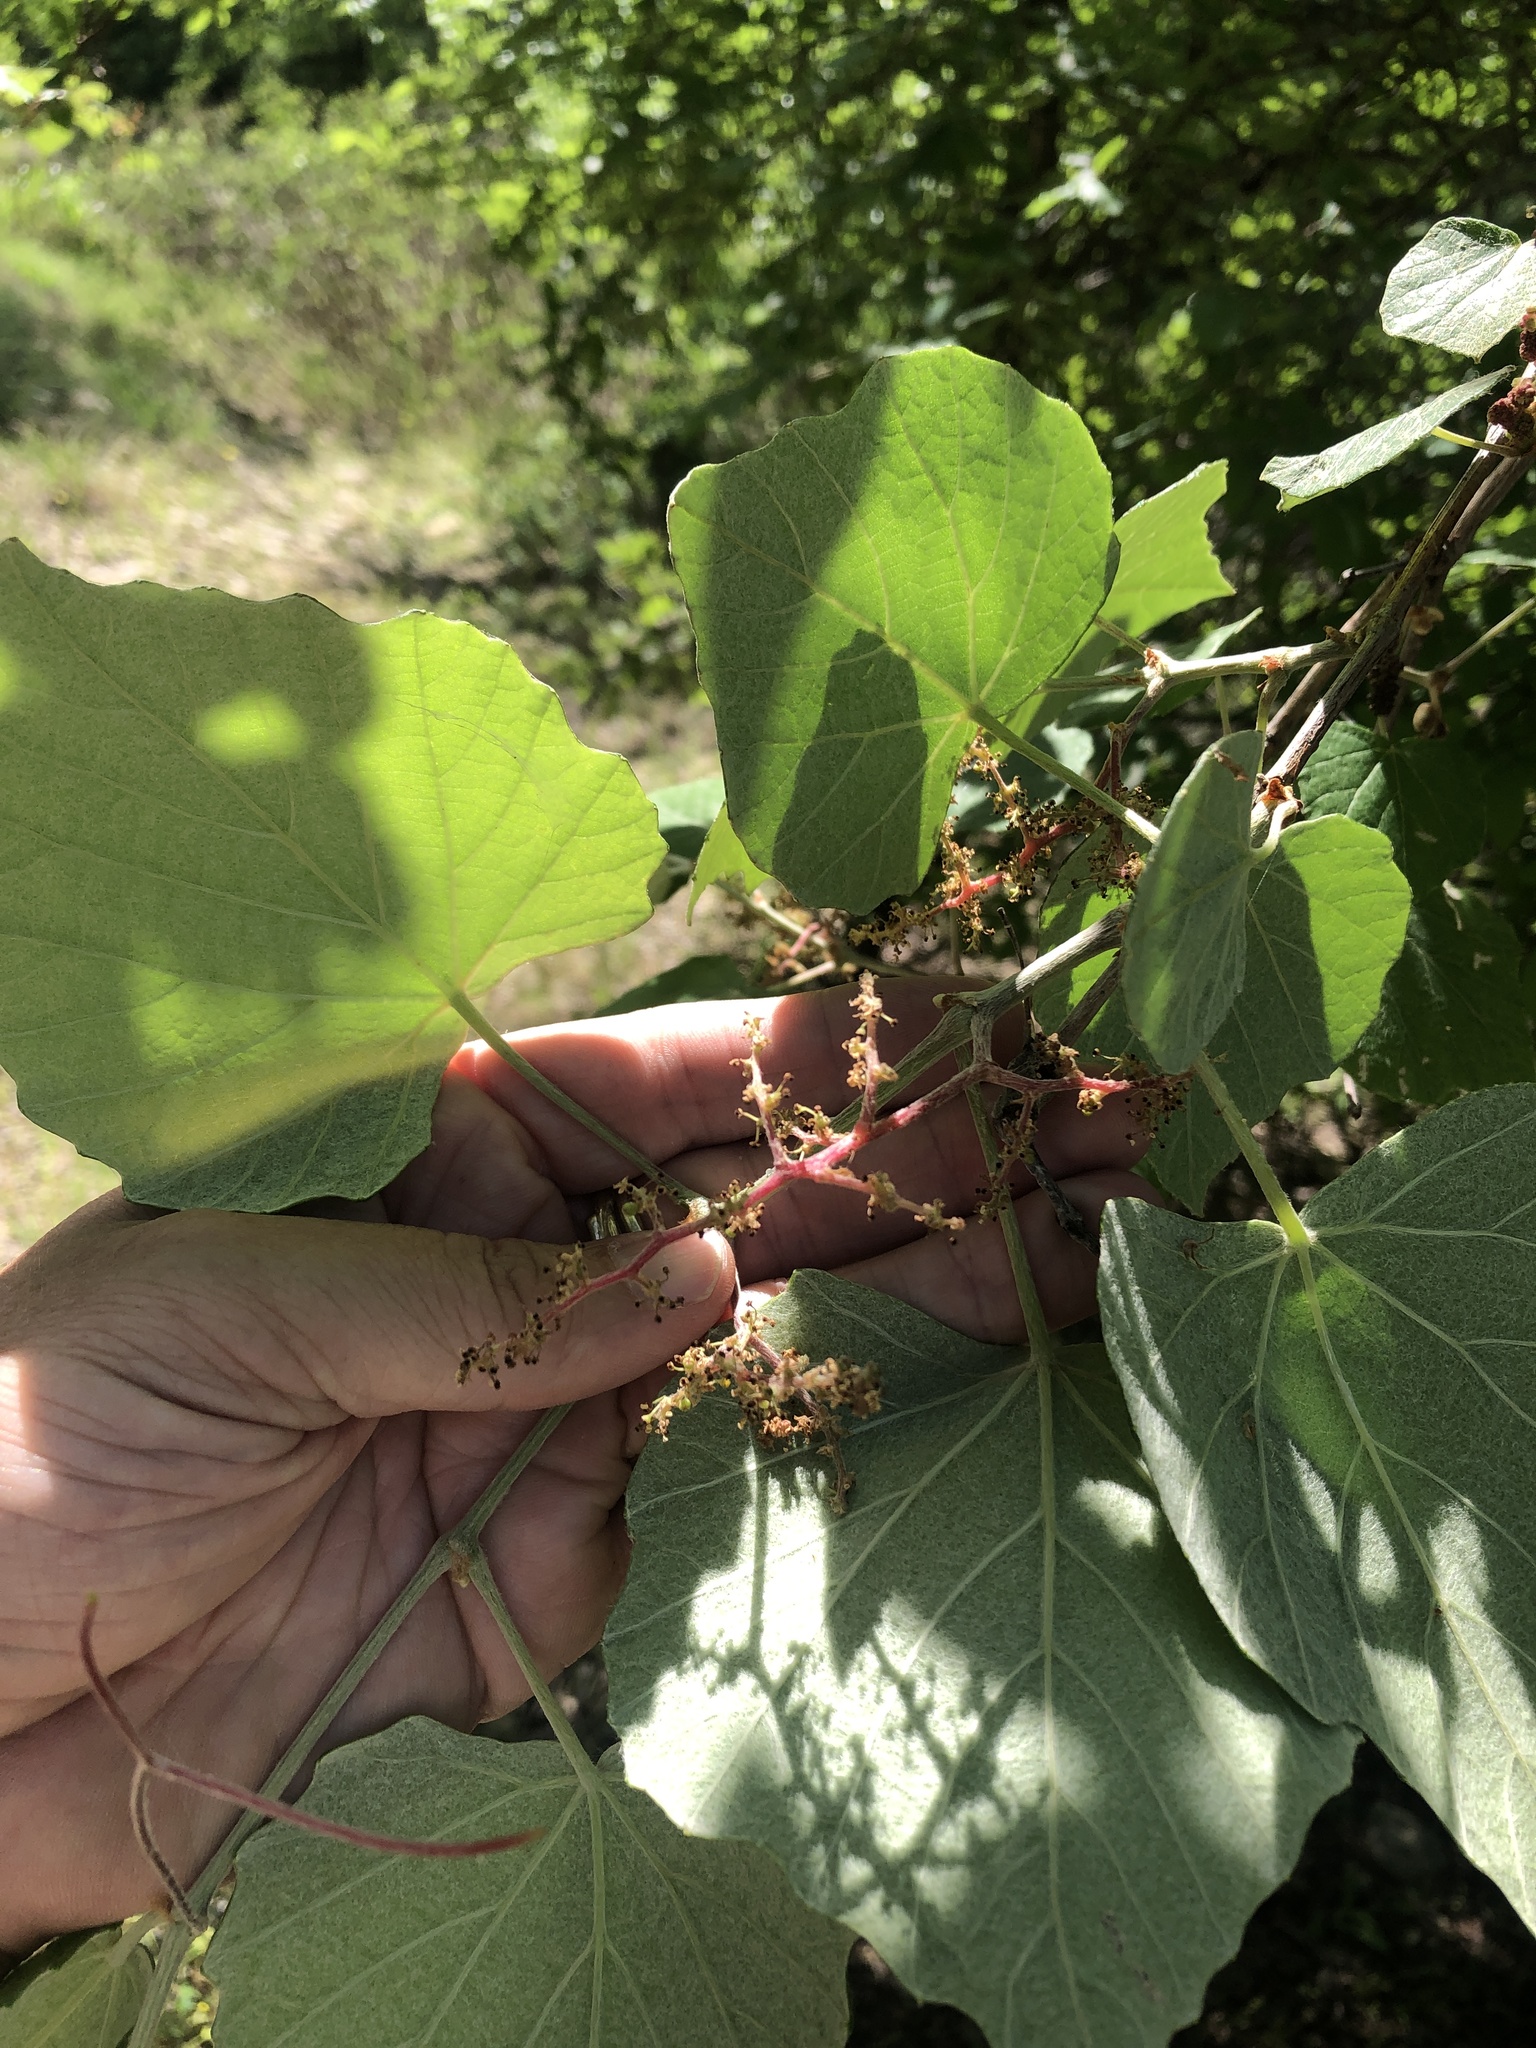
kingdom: Plantae
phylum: Tracheophyta
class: Magnoliopsida
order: Vitales
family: Vitaceae
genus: Vitis
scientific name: Vitis mustangensis
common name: Mustang grape
